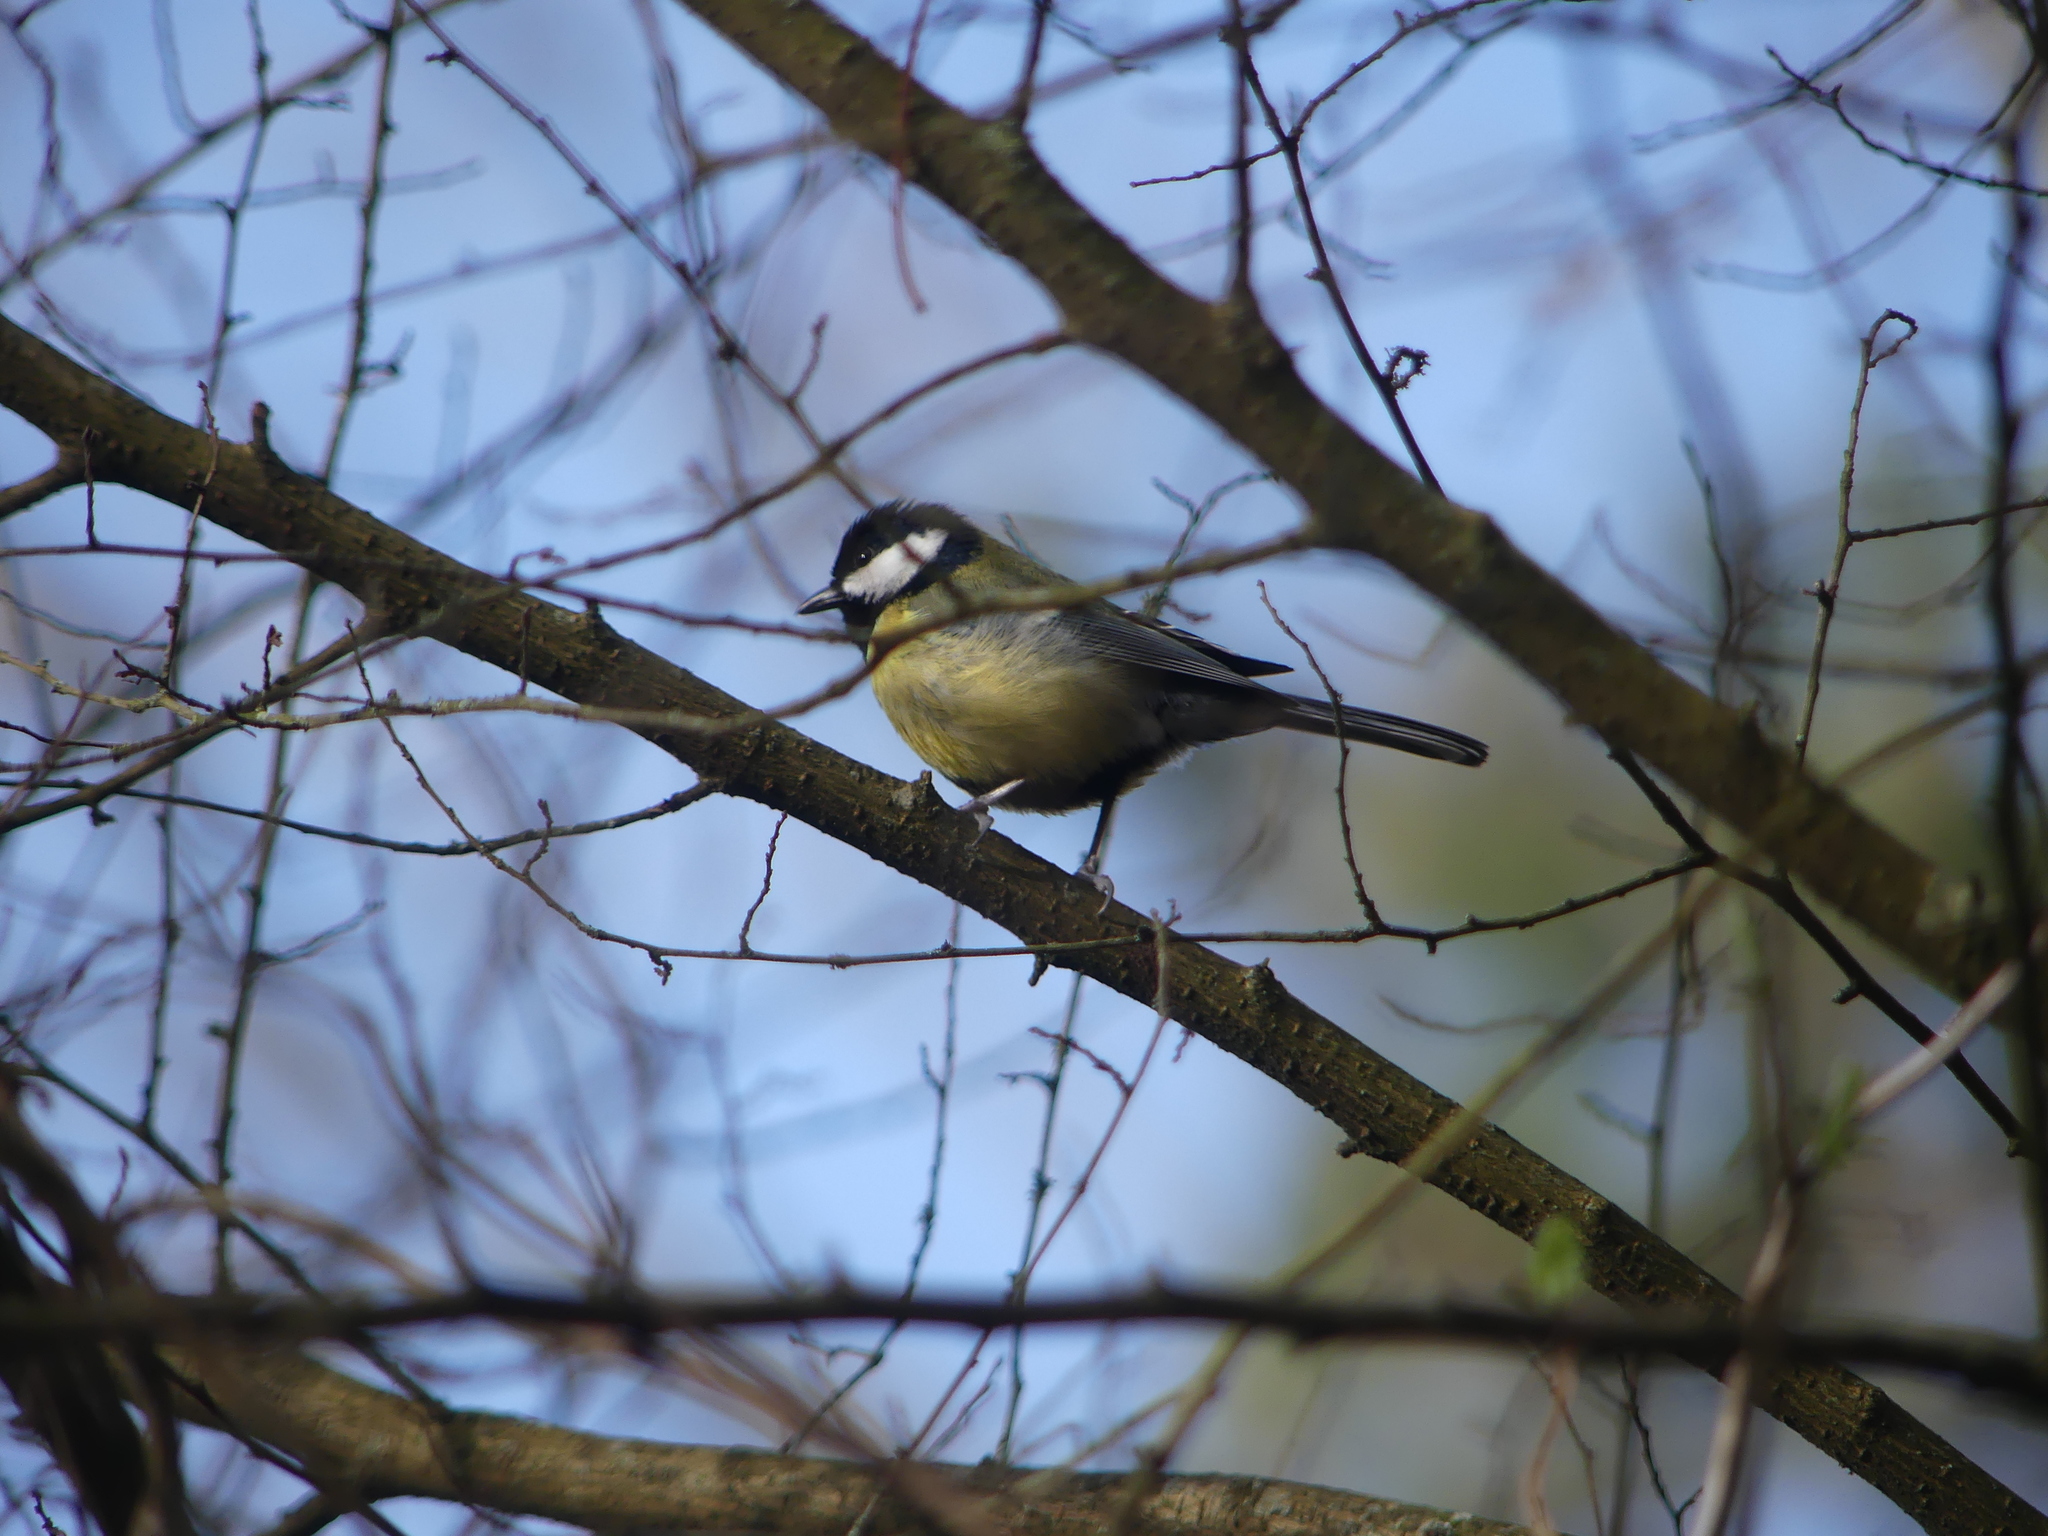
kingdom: Animalia
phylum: Chordata
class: Aves
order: Passeriformes
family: Paridae
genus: Parus
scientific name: Parus major
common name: Great tit
